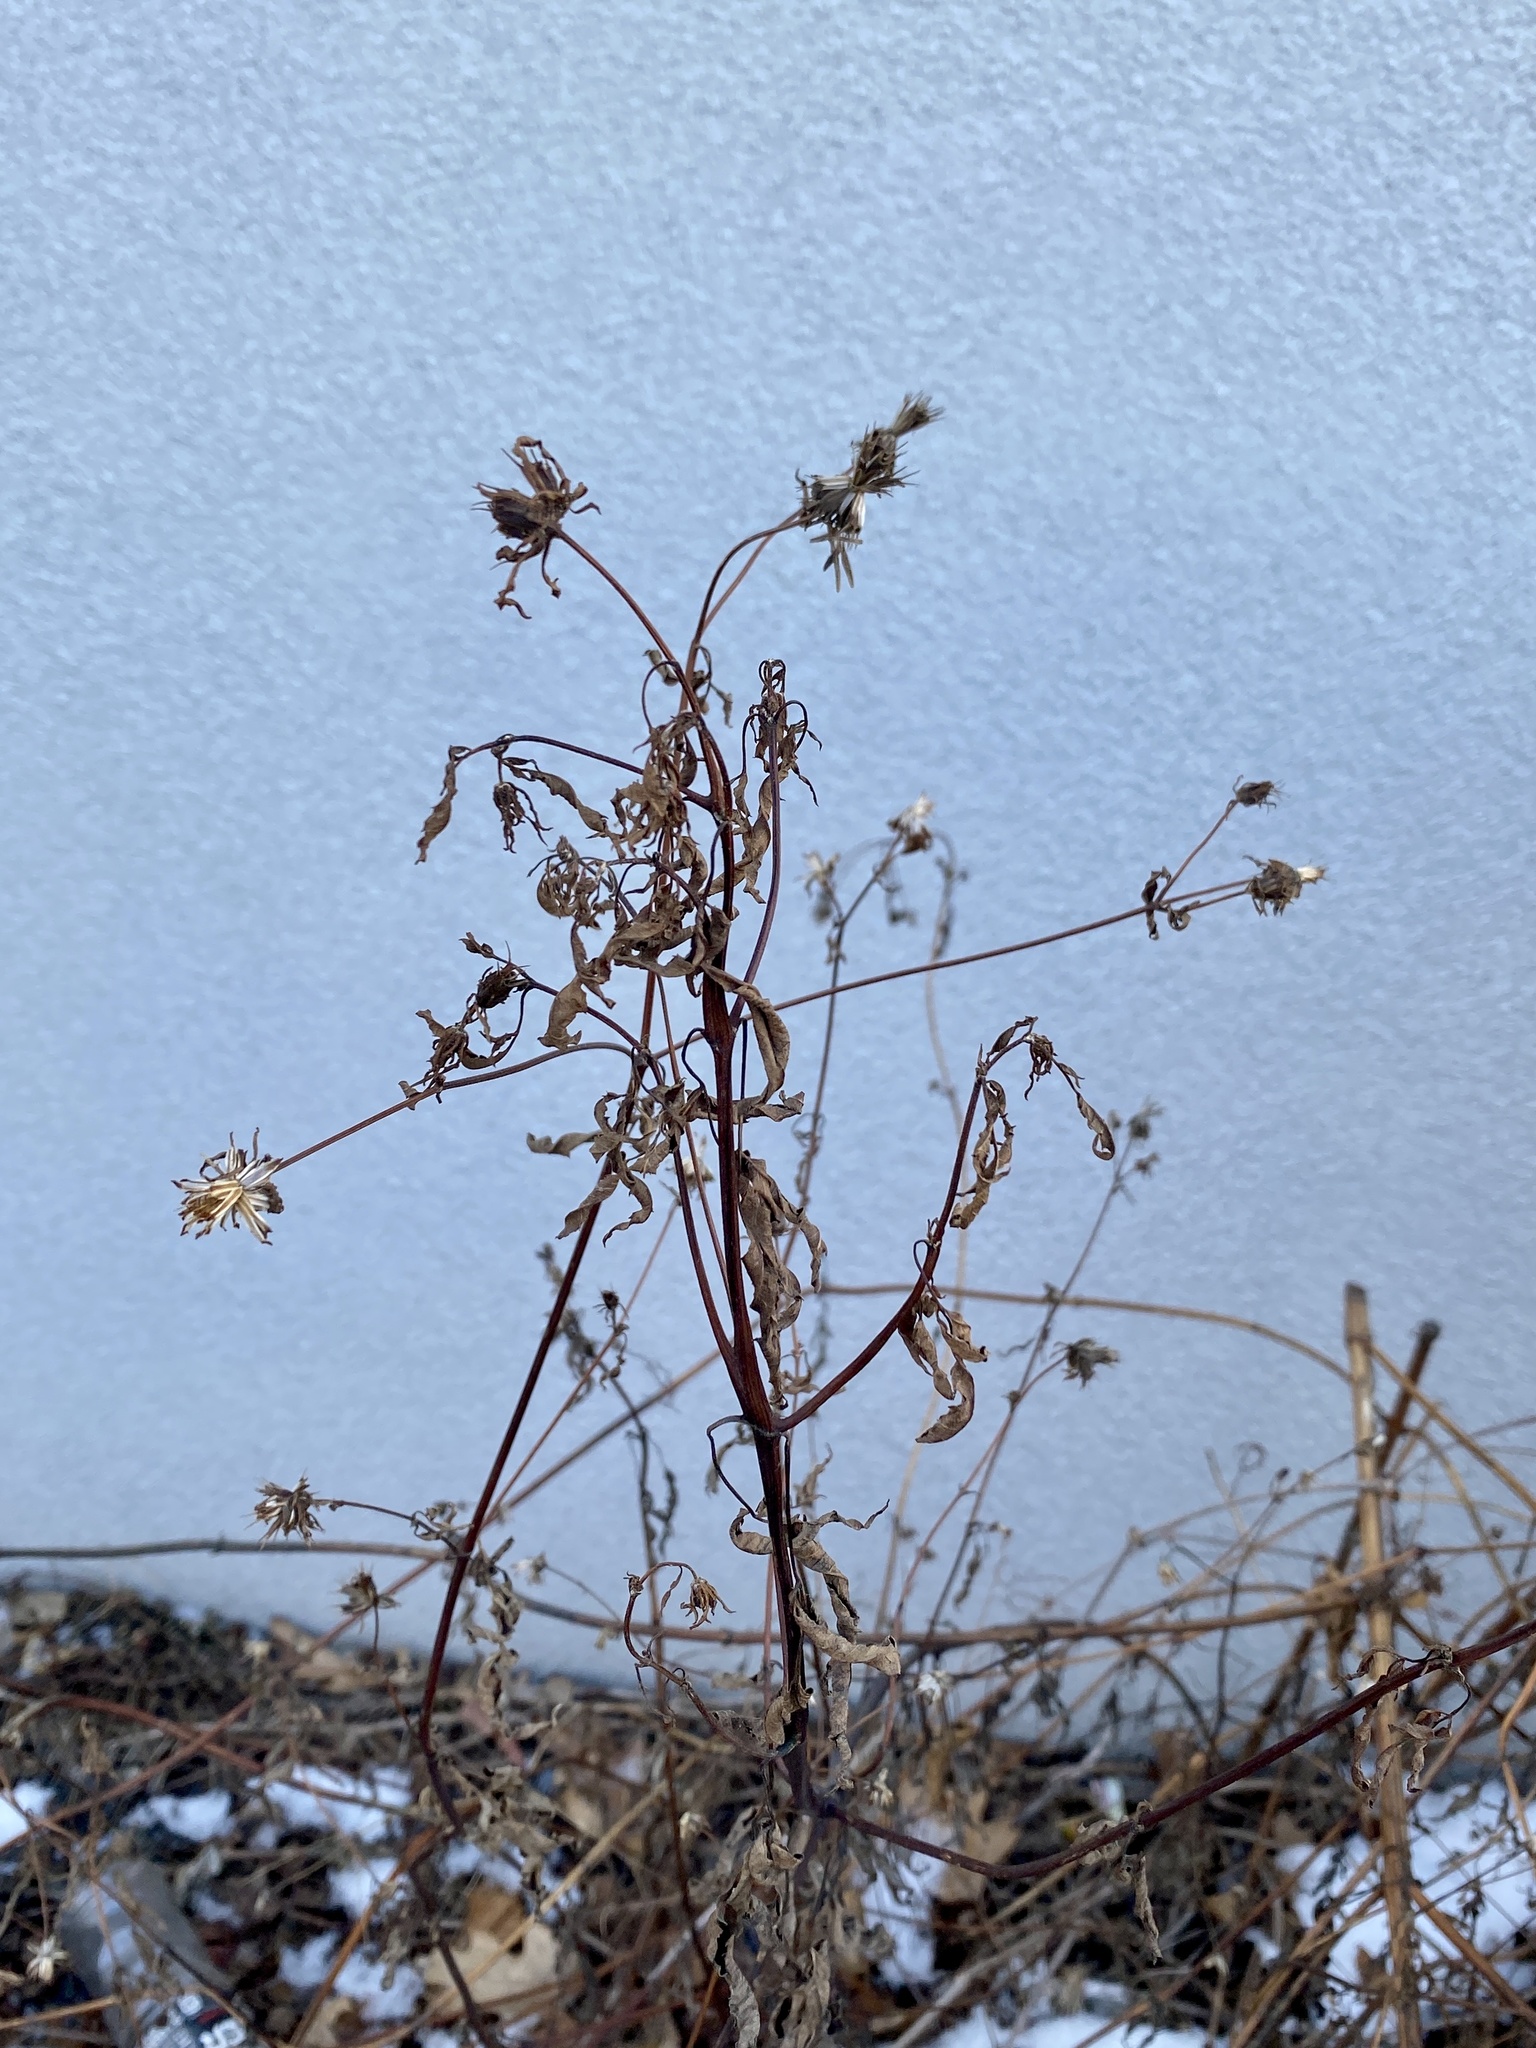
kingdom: Plantae
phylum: Tracheophyta
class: Magnoliopsida
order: Asterales
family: Asteraceae
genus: Bidens
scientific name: Bidens frondosa
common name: Beggarticks
